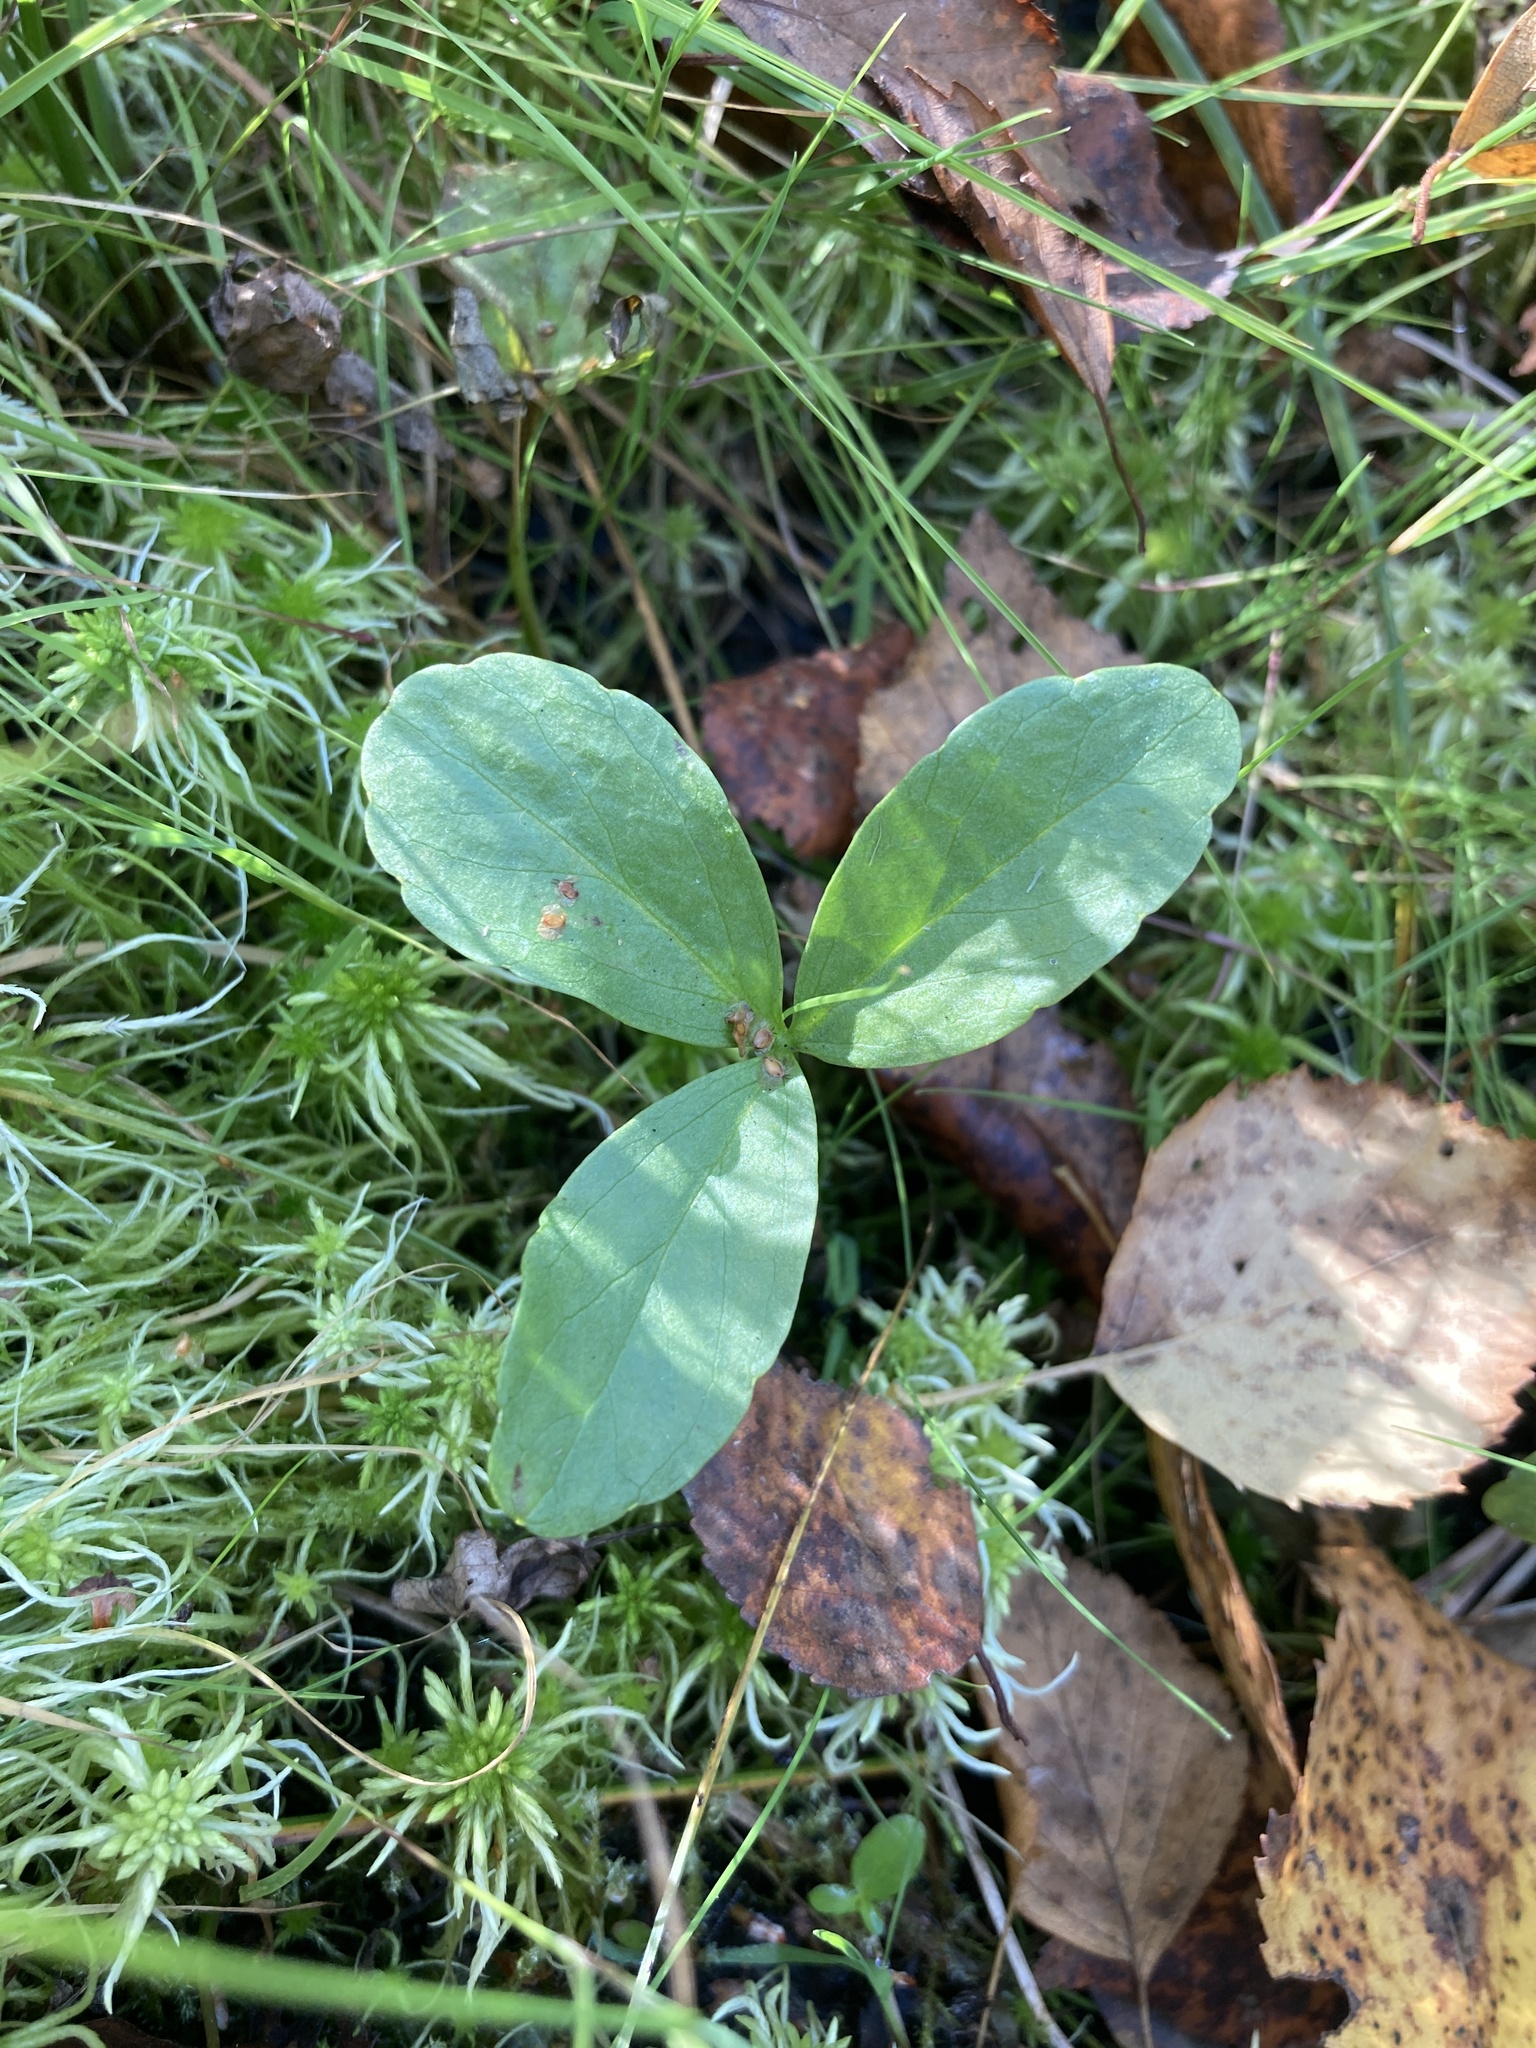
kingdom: Plantae
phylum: Tracheophyta
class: Magnoliopsida
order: Asterales
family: Menyanthaceae
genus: Menyanthes
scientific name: Menyanthes trifoliata
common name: Bogbean
